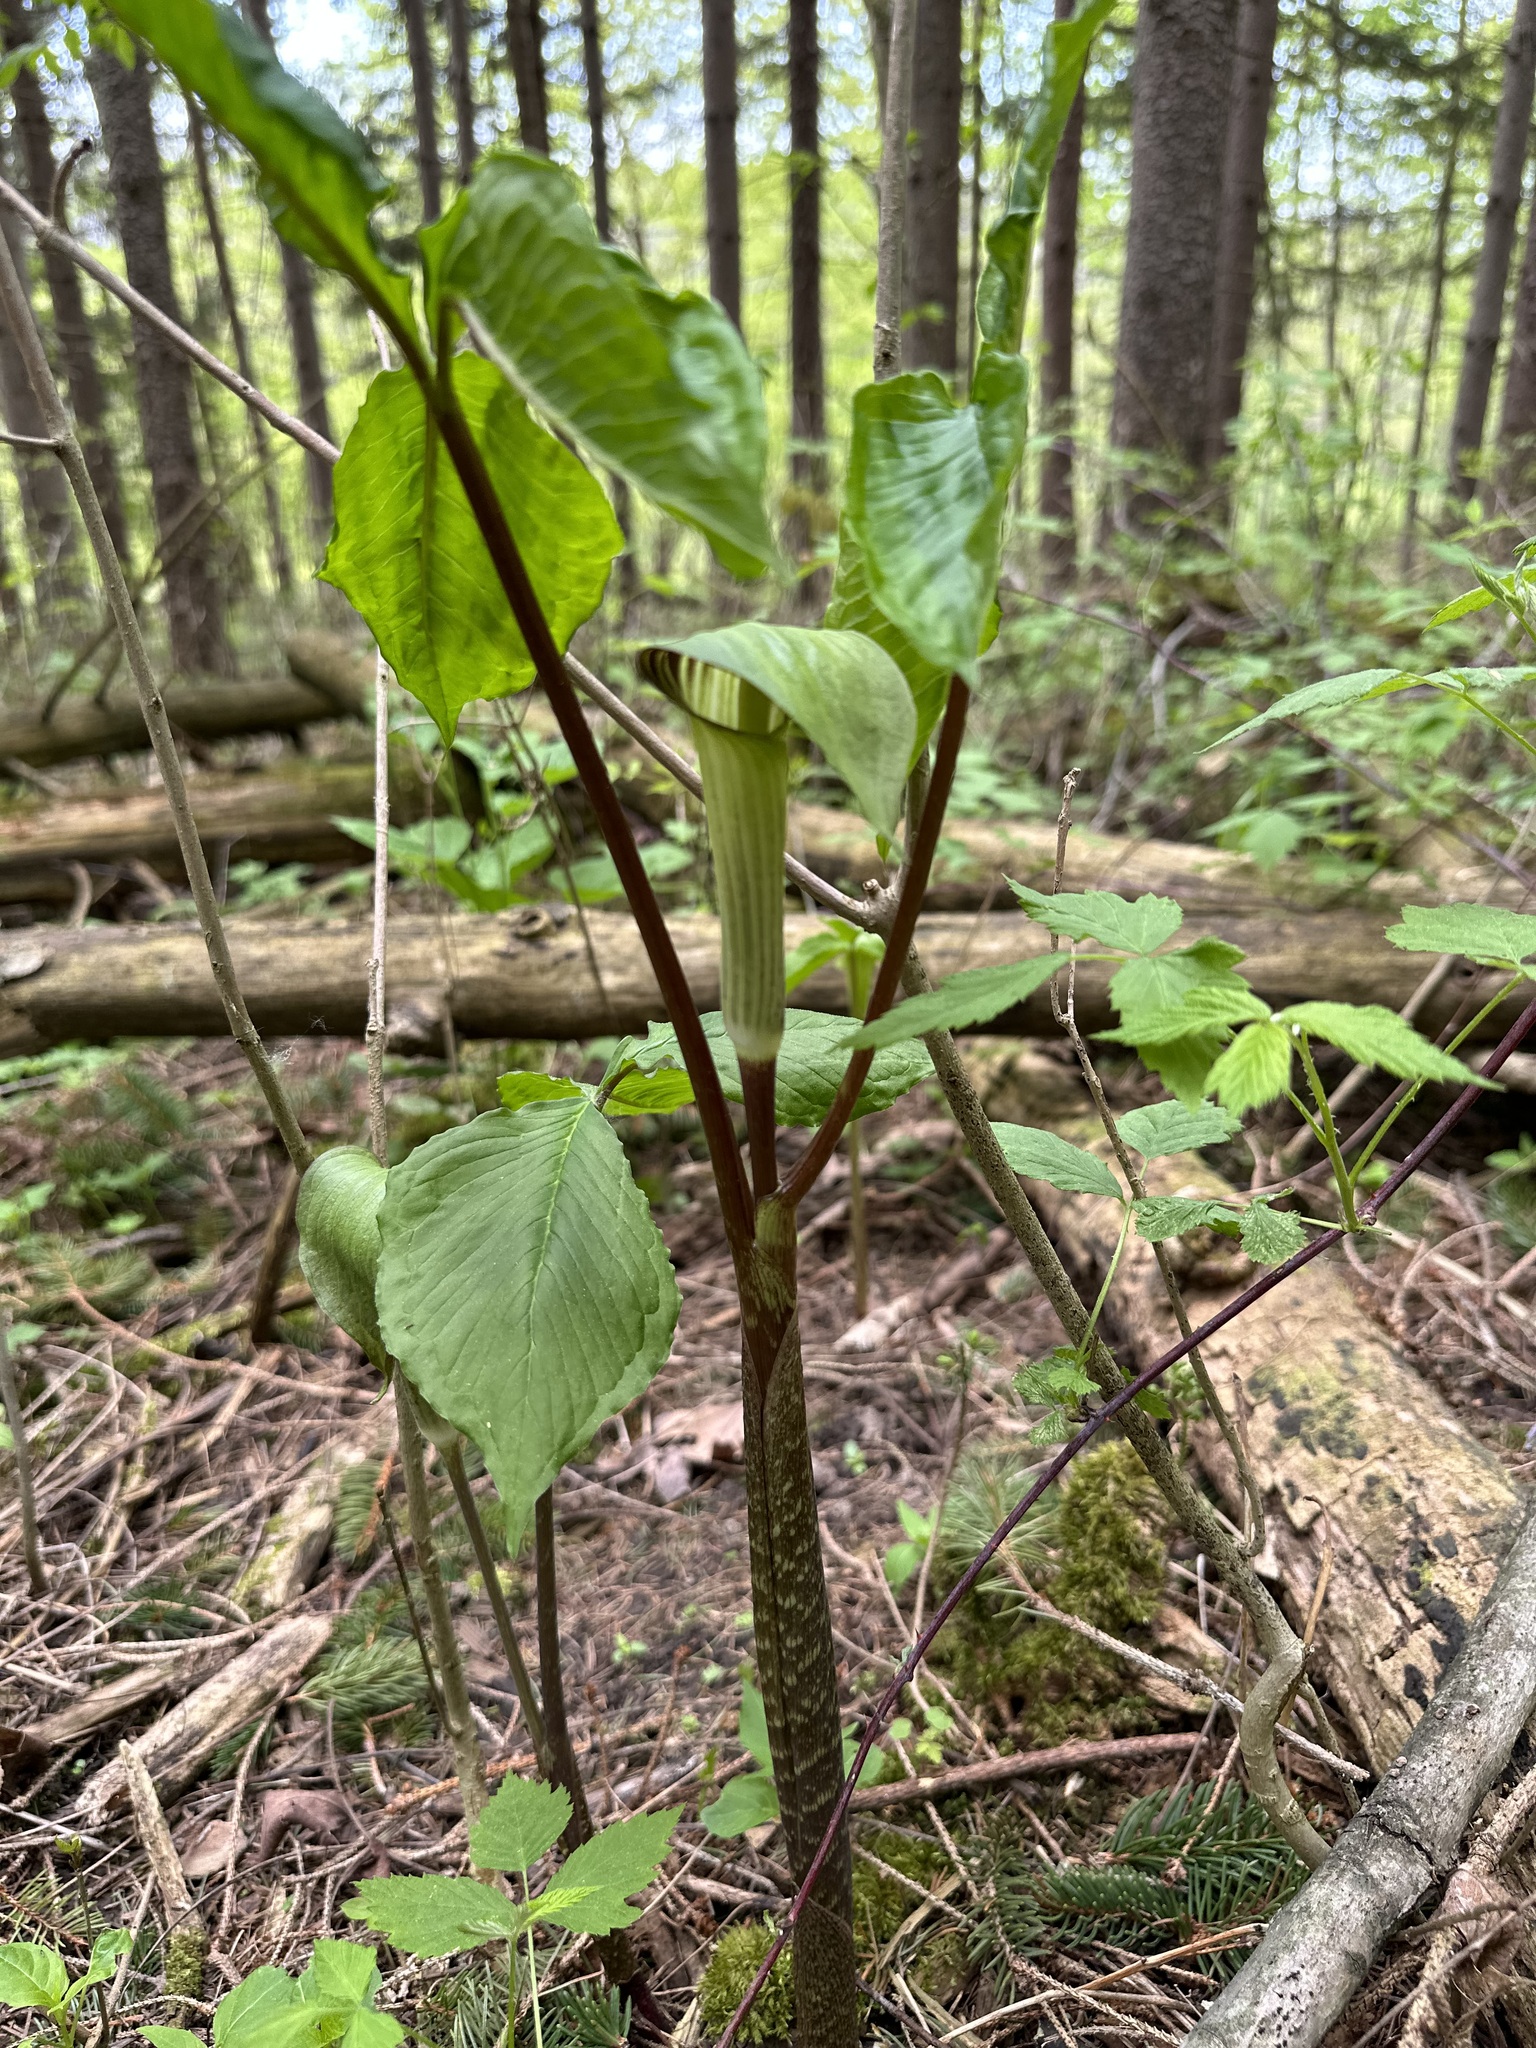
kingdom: Plantae
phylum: Tracheophyta
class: Liliopsida
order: Alismatales
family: Araceae
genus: Arisaema
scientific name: Arisaema triphyllum
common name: Jack-in-the-pulpit
